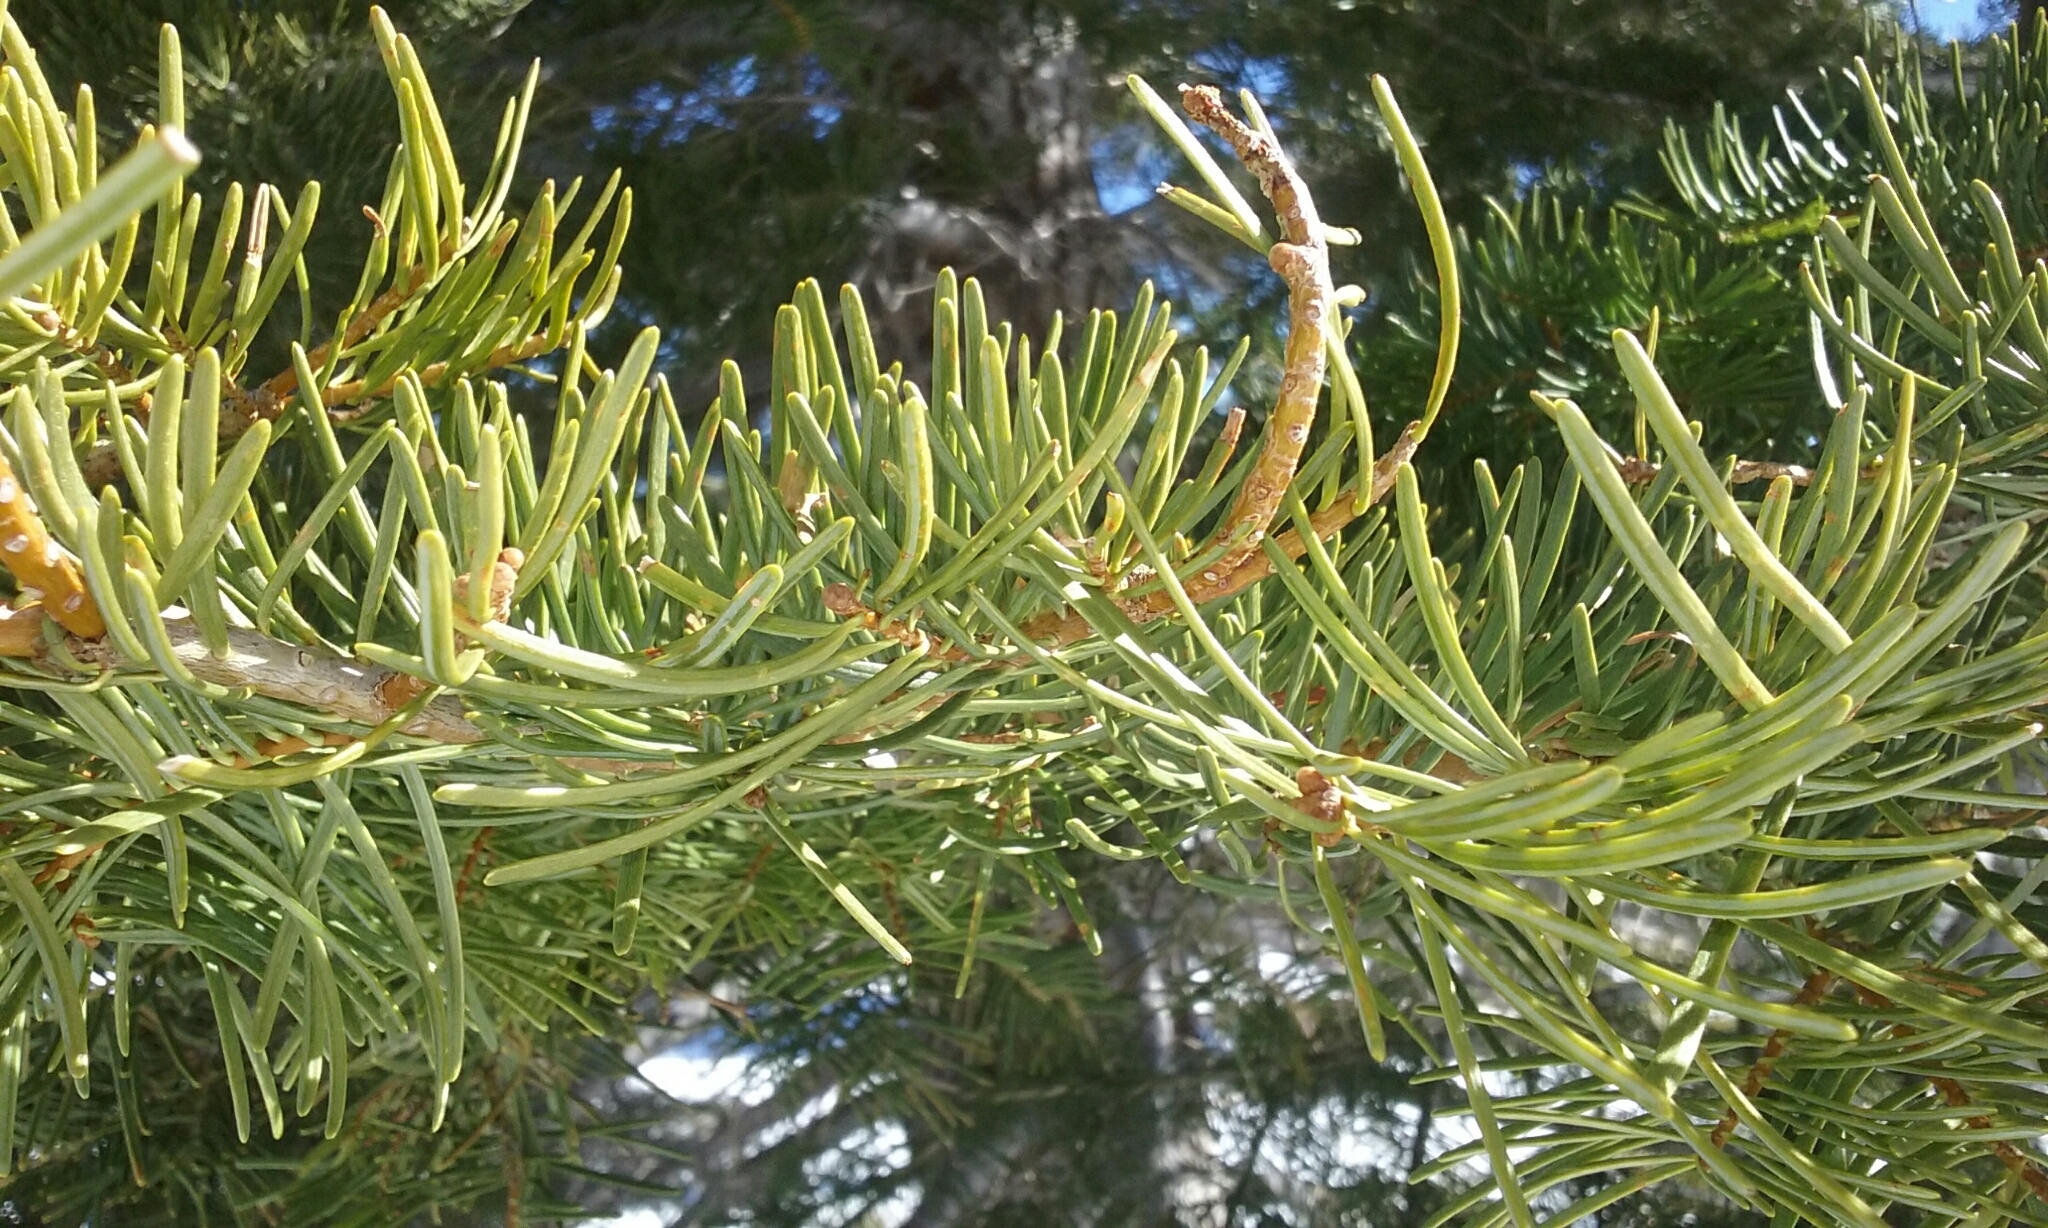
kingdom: Plantae
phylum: Tracheophyta
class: Pinopsida
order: Pinales
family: Pinaceae
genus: Abies
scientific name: Abies concolor
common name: Colorado fir
